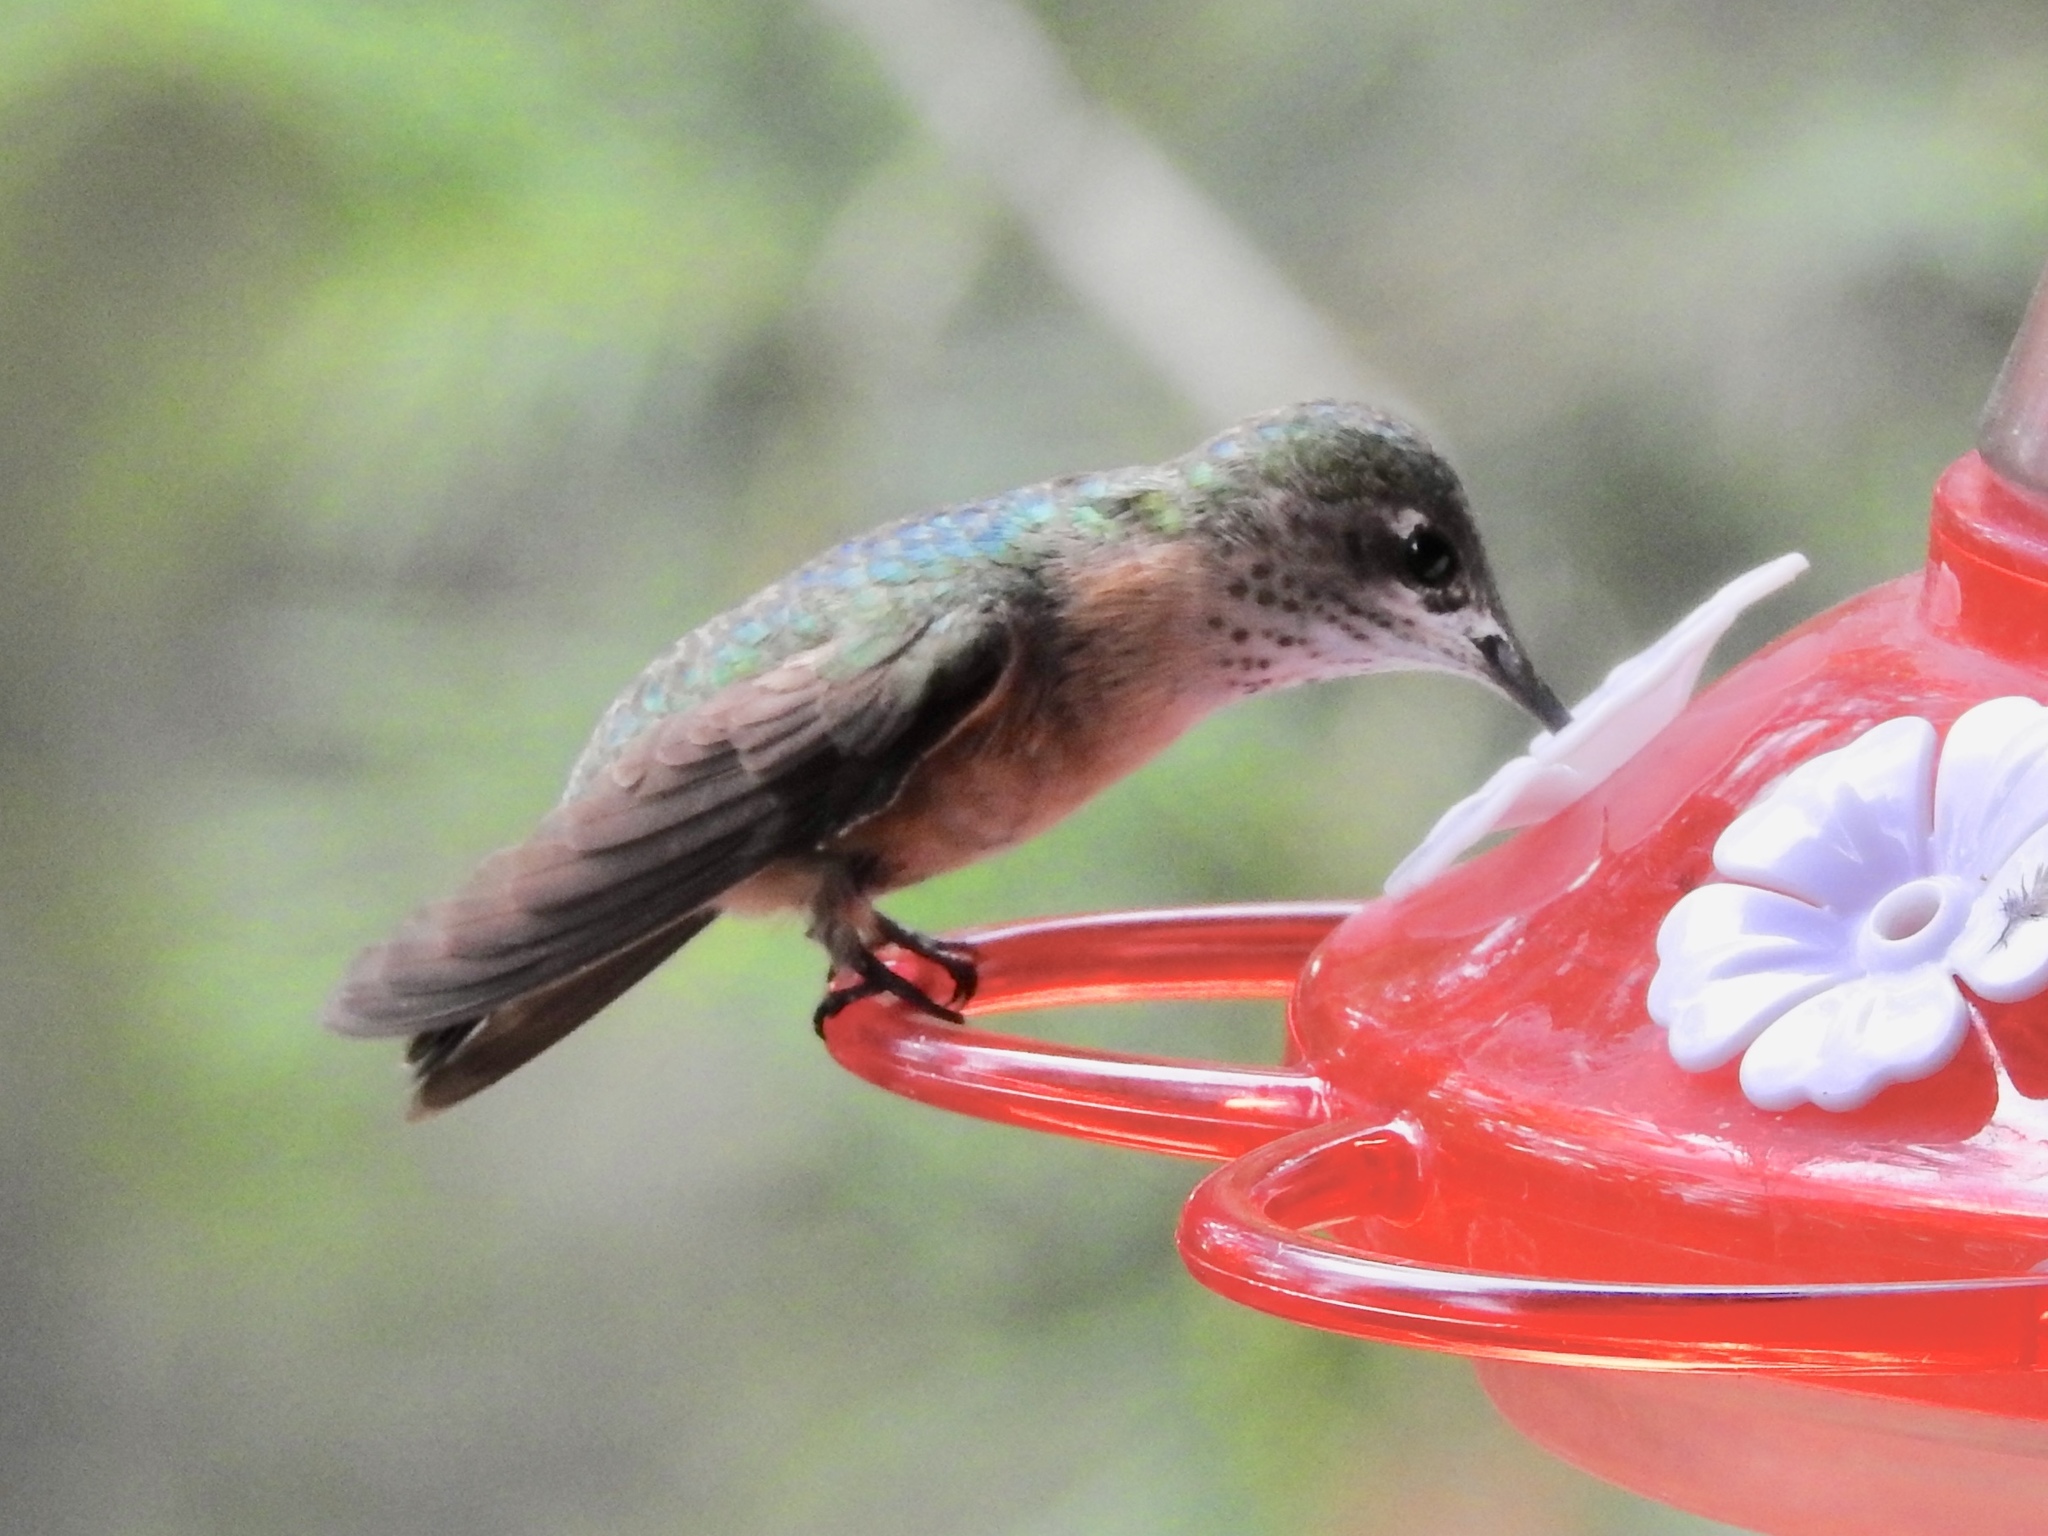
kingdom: Animalia
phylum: Chordata
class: Aves
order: Apodiformes
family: Trochilidae
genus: Selasphorus
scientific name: Selasphorus platycercus
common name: Broad-tailed hummingbird
